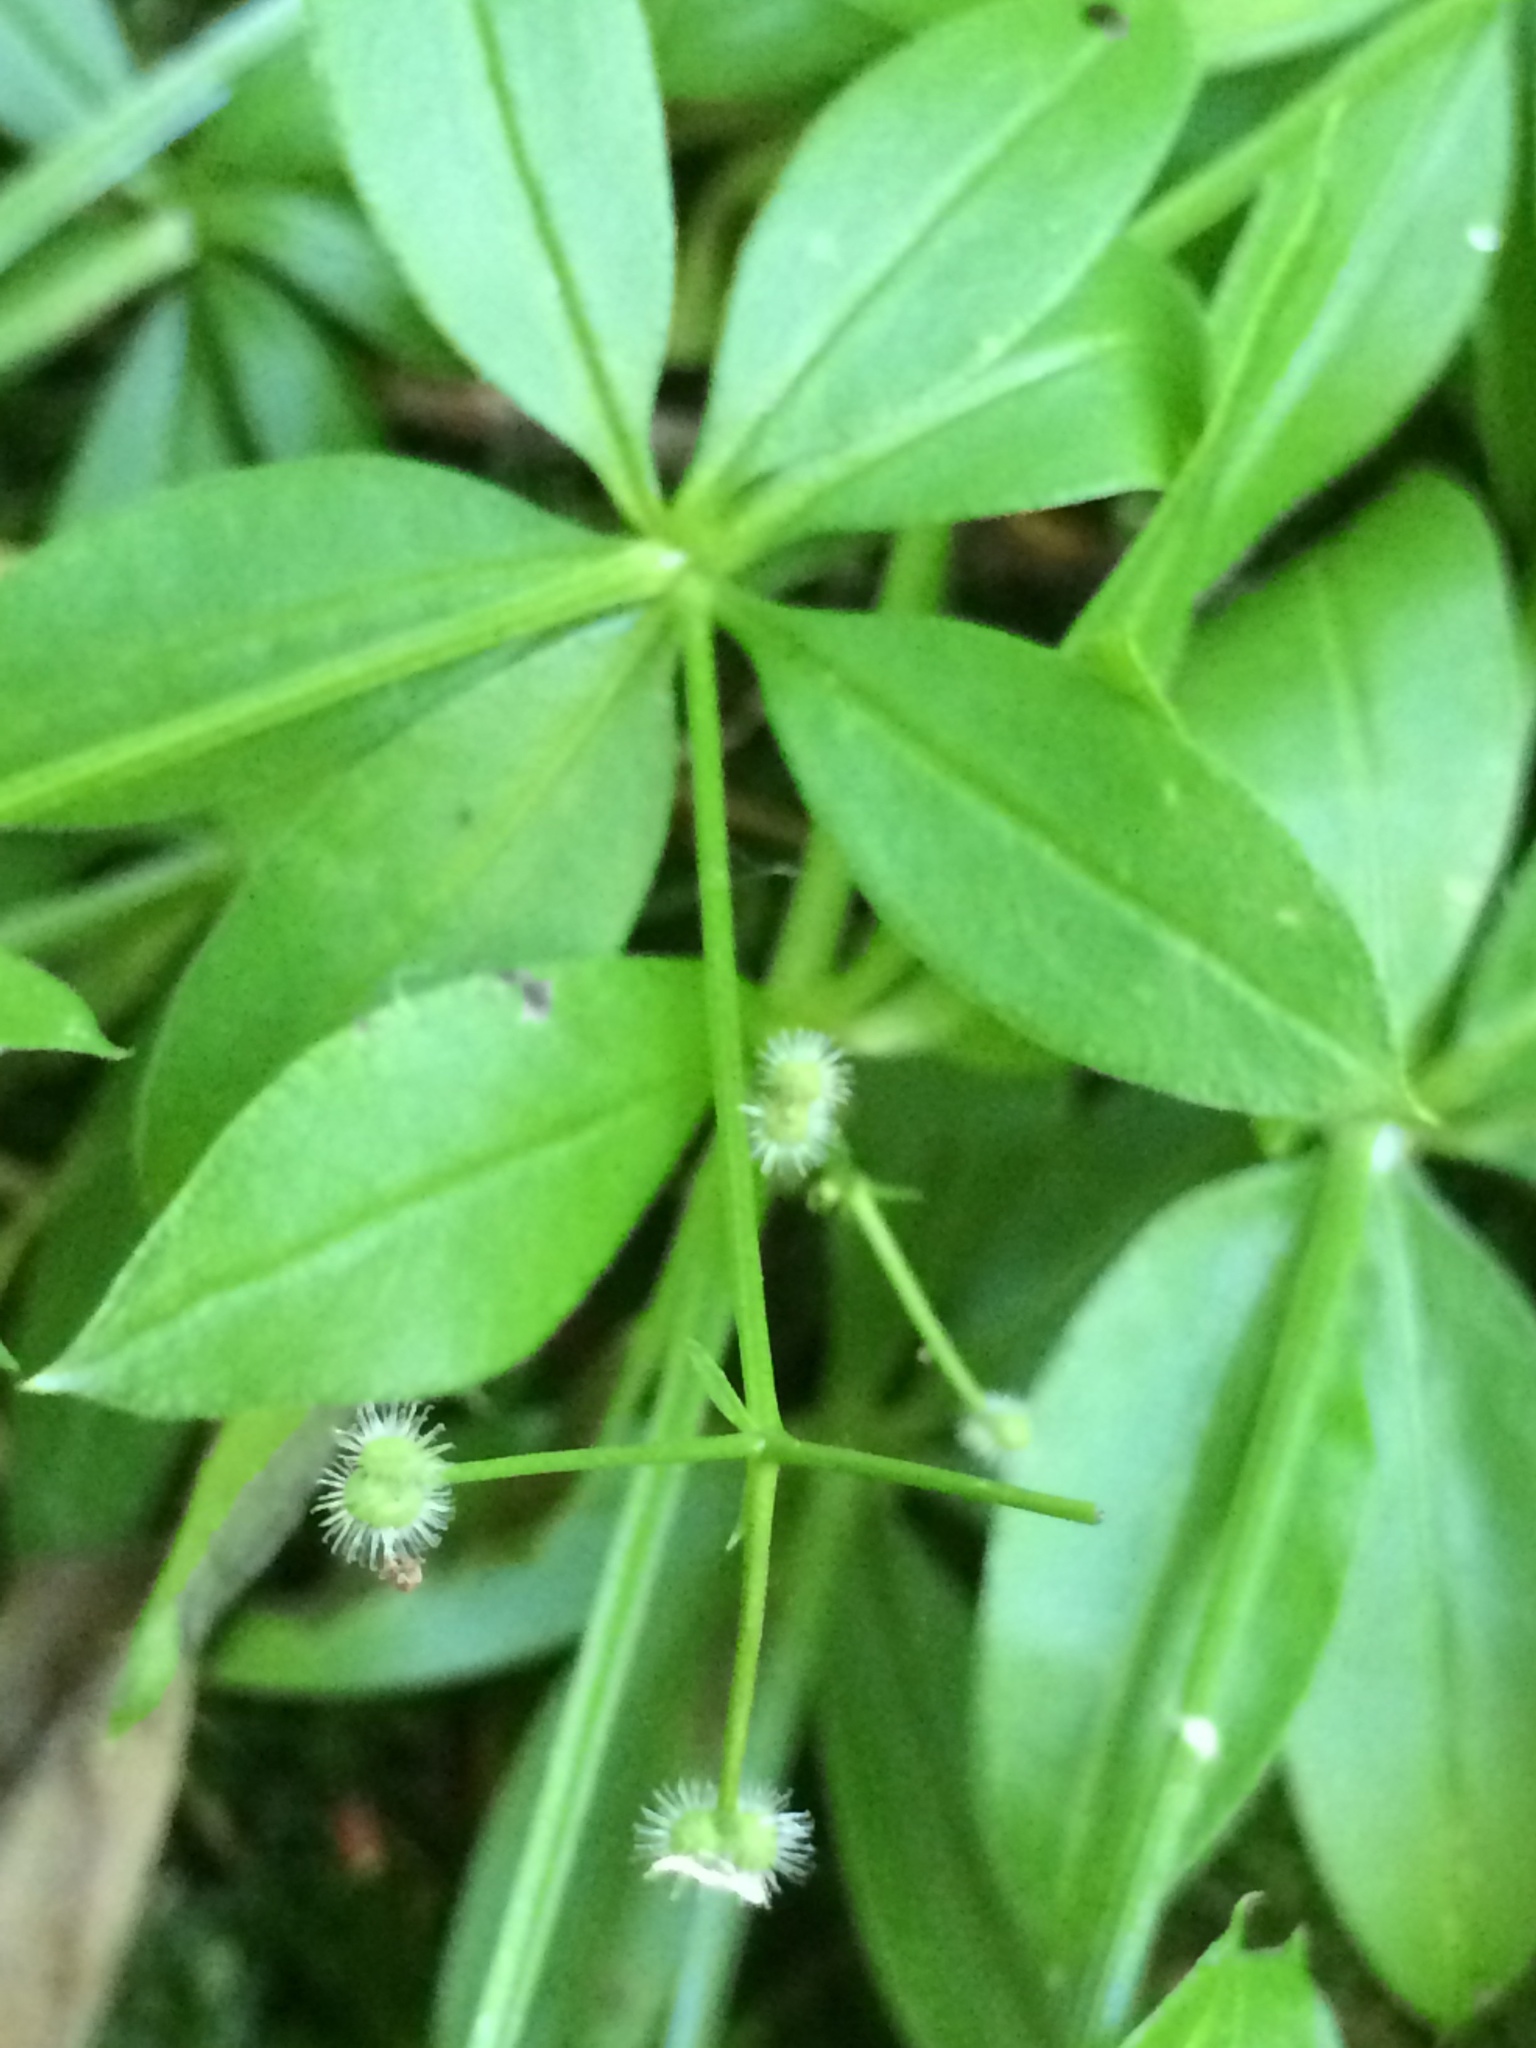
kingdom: Plantae
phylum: Tracheophyta
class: Magnoliopsida
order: Gentianales
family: Rubiaceae
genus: Galium
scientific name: Galium triflorum
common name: Fragrant bedstraw
